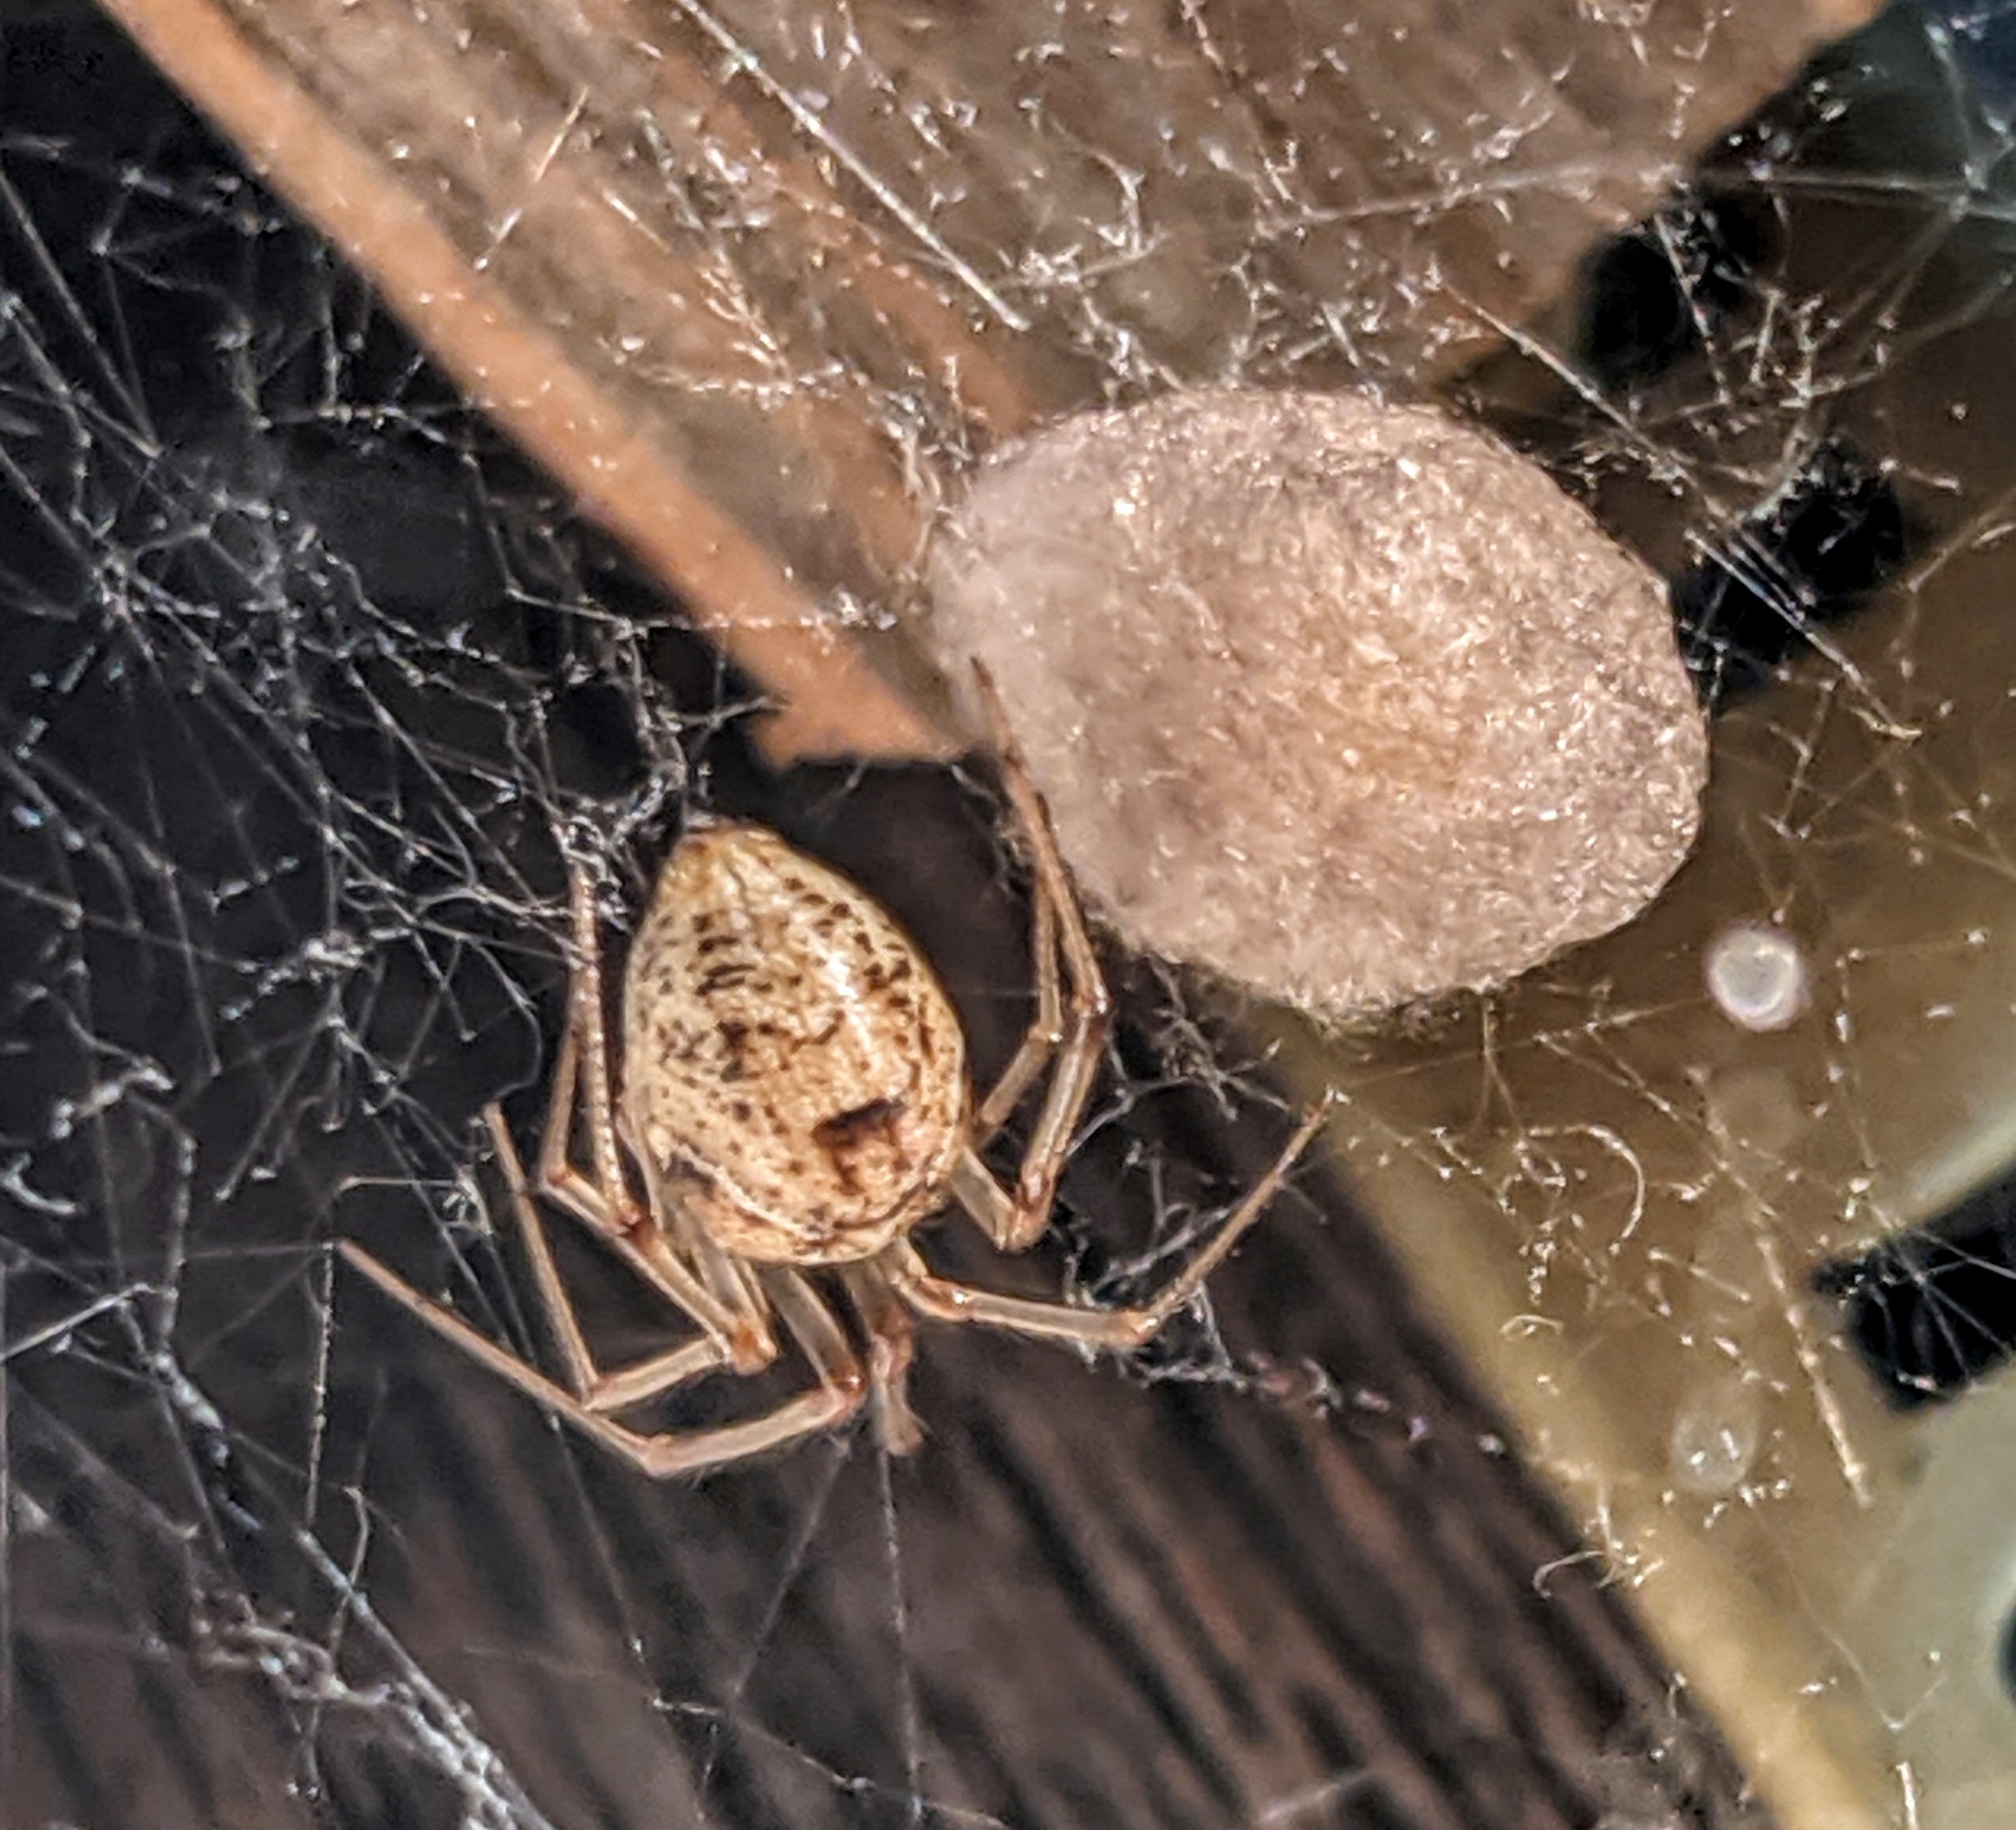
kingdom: Animalia
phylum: Arthropoda
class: Arachnida
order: Araneae
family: Theridiidae
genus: Parasteatoda
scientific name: Parasteatoda tepidariorum
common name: Common house spider
